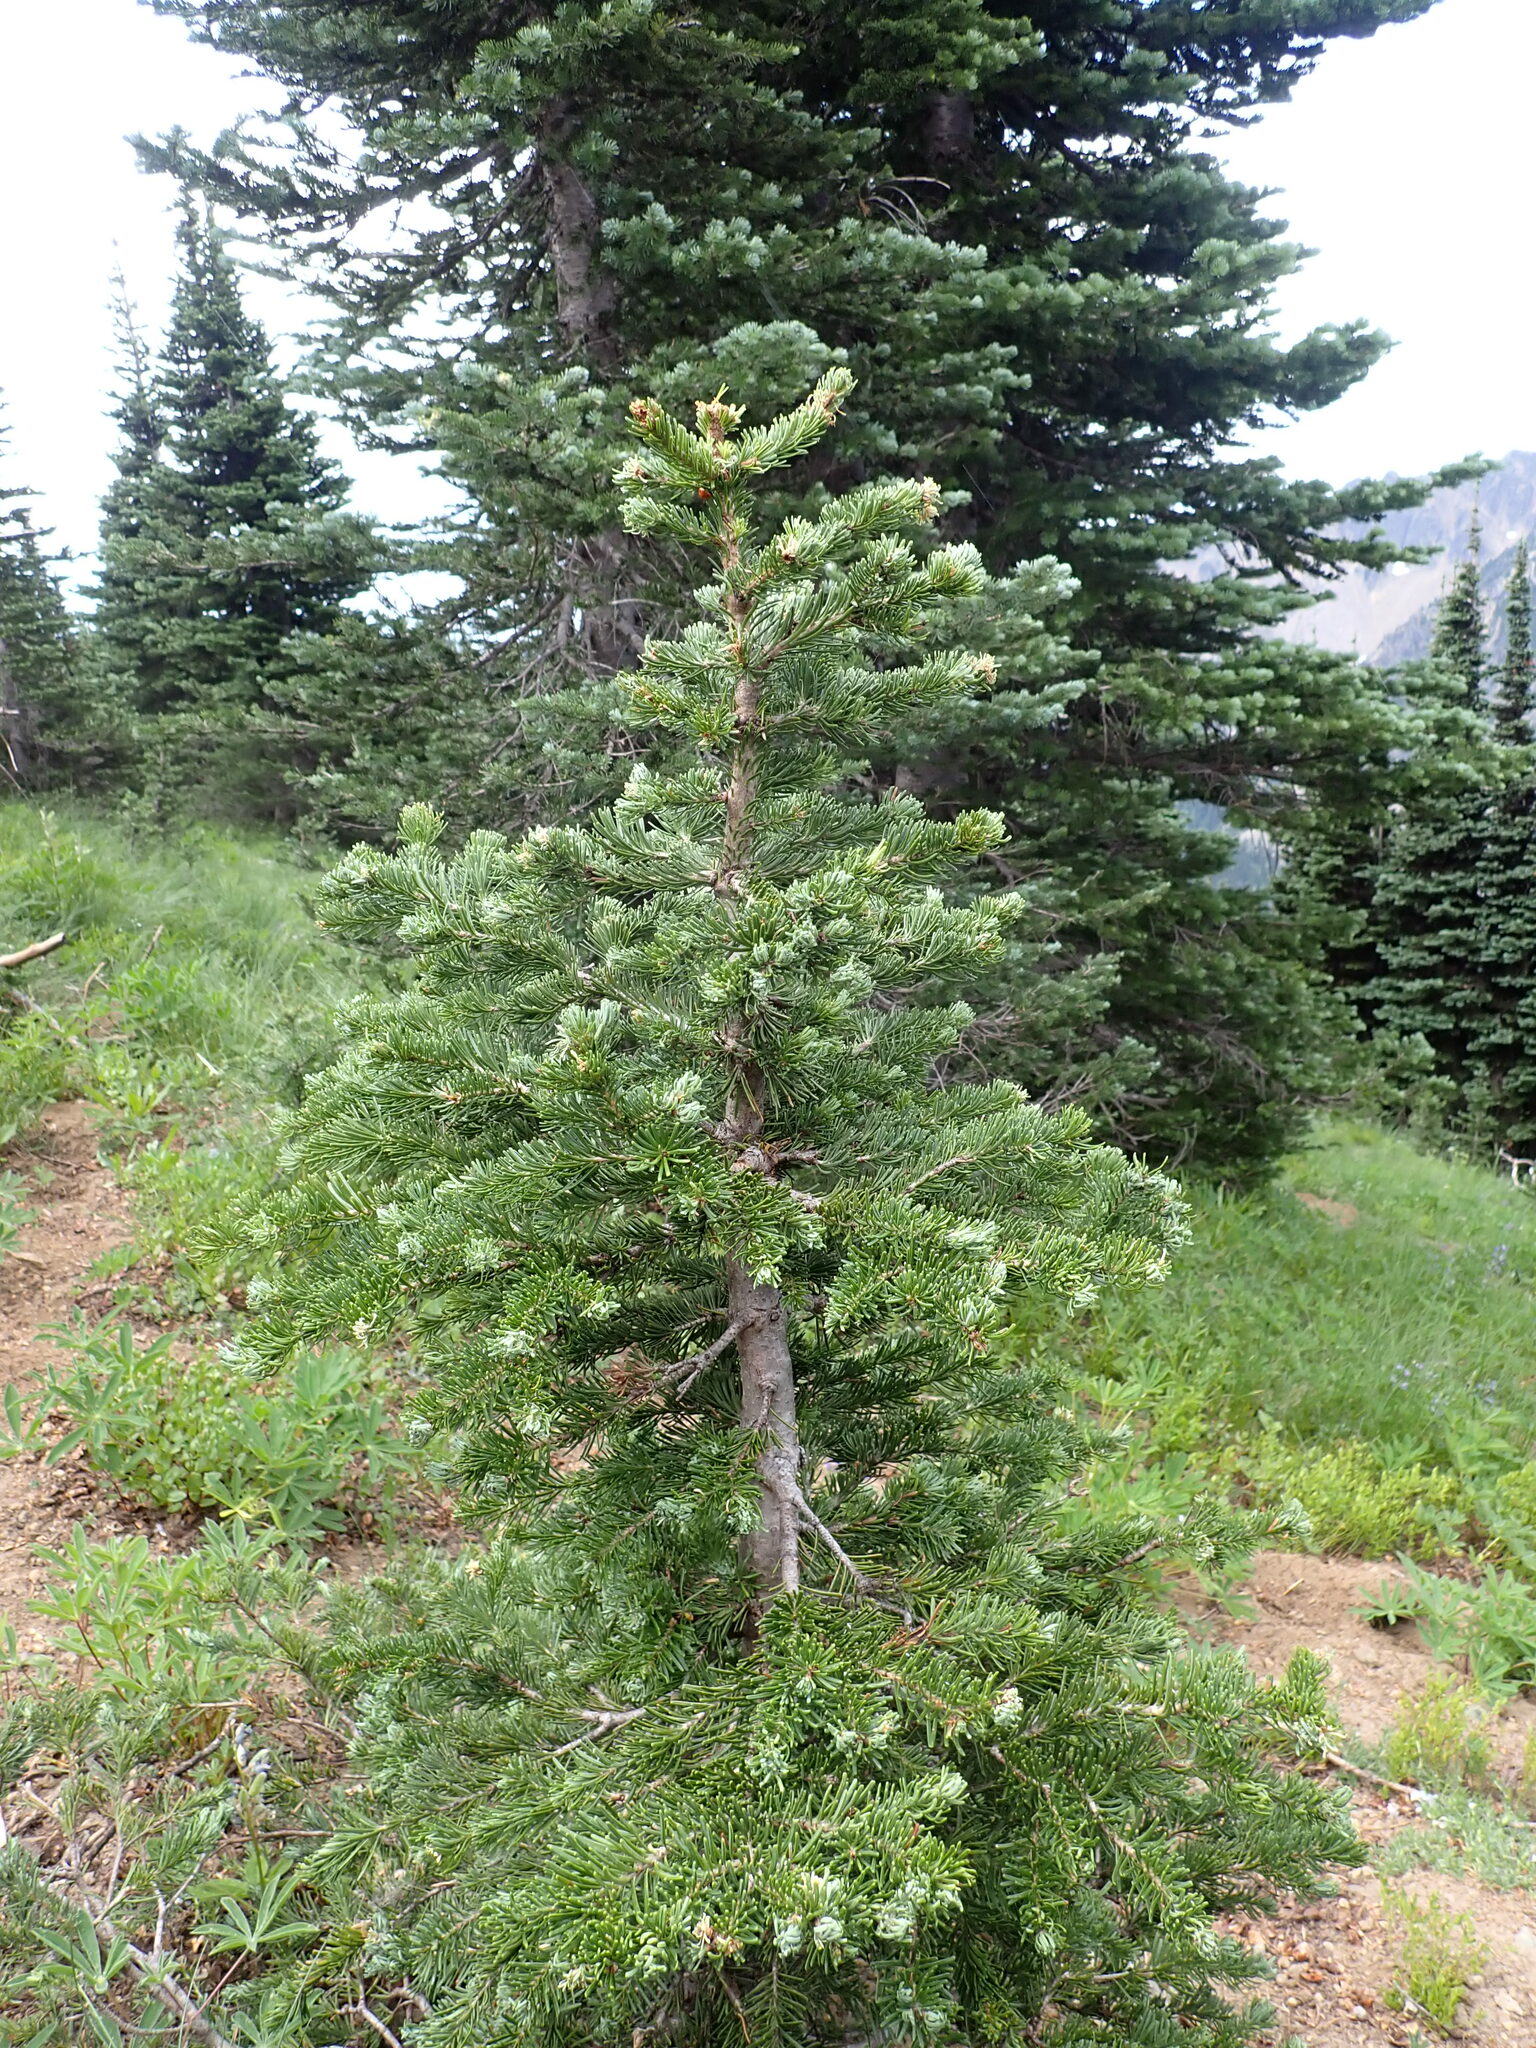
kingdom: Plantae
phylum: Tracheophyta
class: Pinopsida
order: Pinales
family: Pinaceae
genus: Abies
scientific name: Abies lasiocarpa
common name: Subalpine fir
